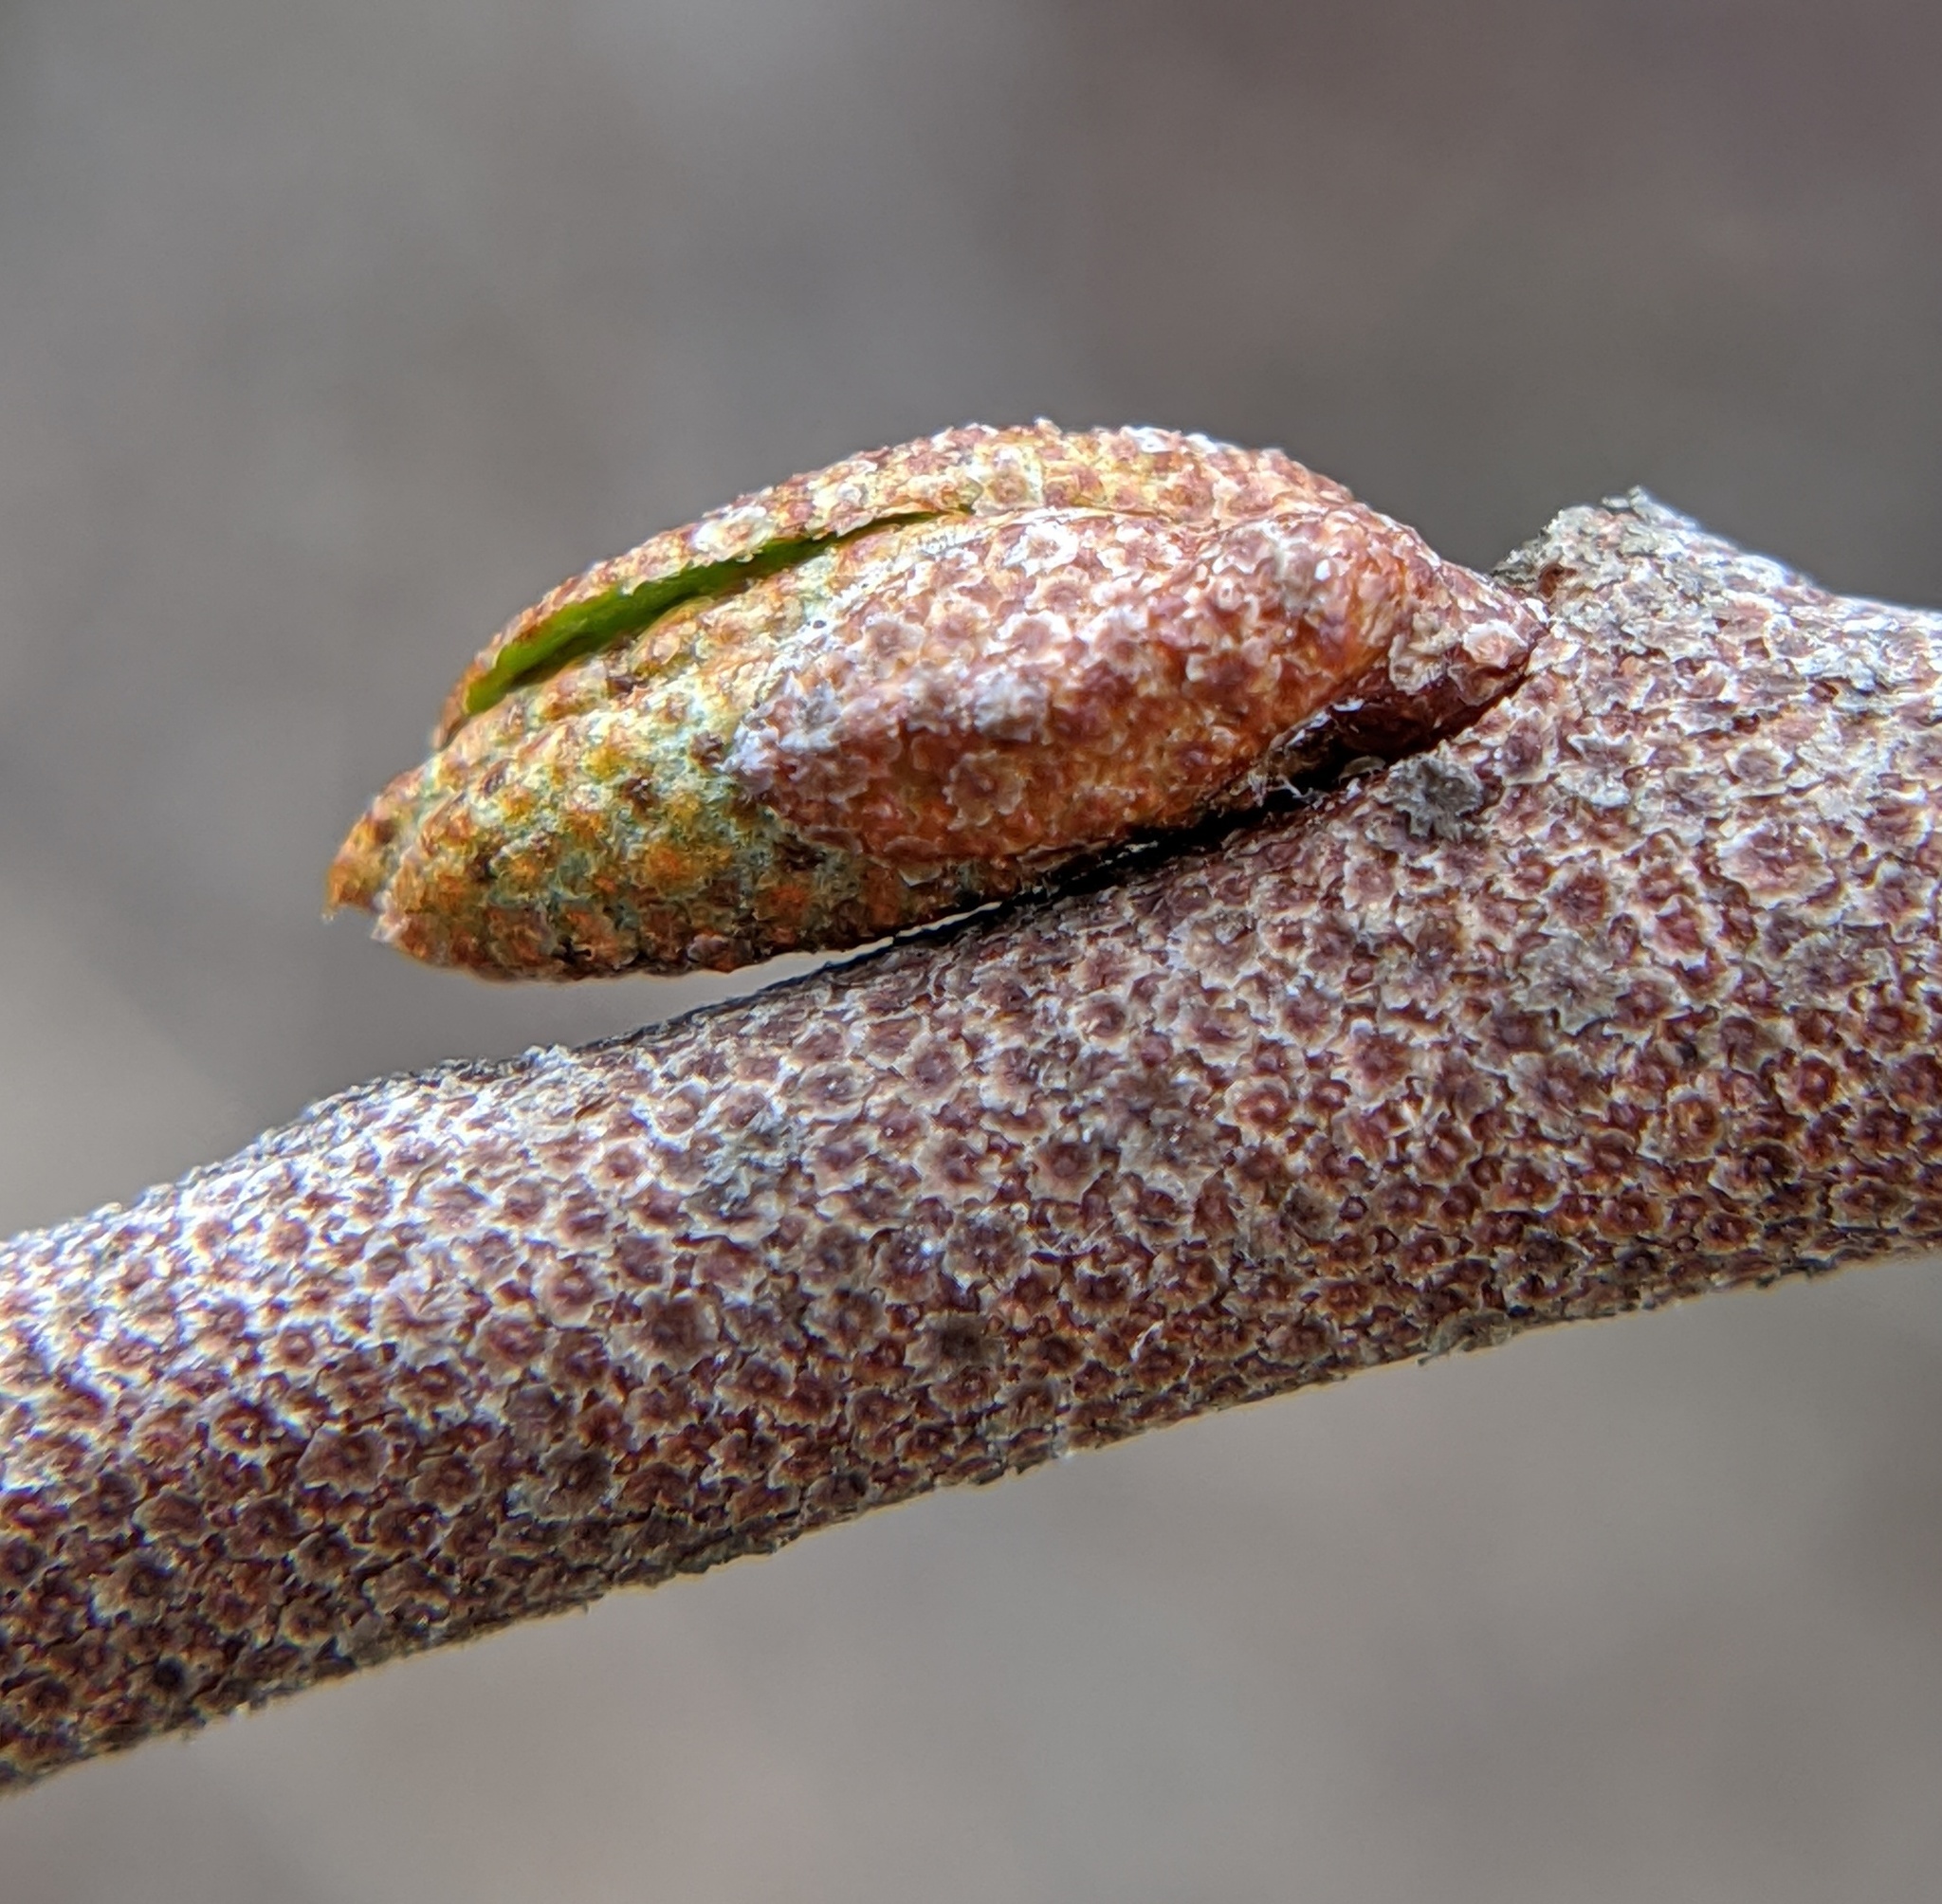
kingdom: Plantae
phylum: Tracheophyta
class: Magnoliopsida
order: Rosales
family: Elaeagnaceae
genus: Elaeagnus
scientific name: Elaeagnus umbellata
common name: Autumn olive
